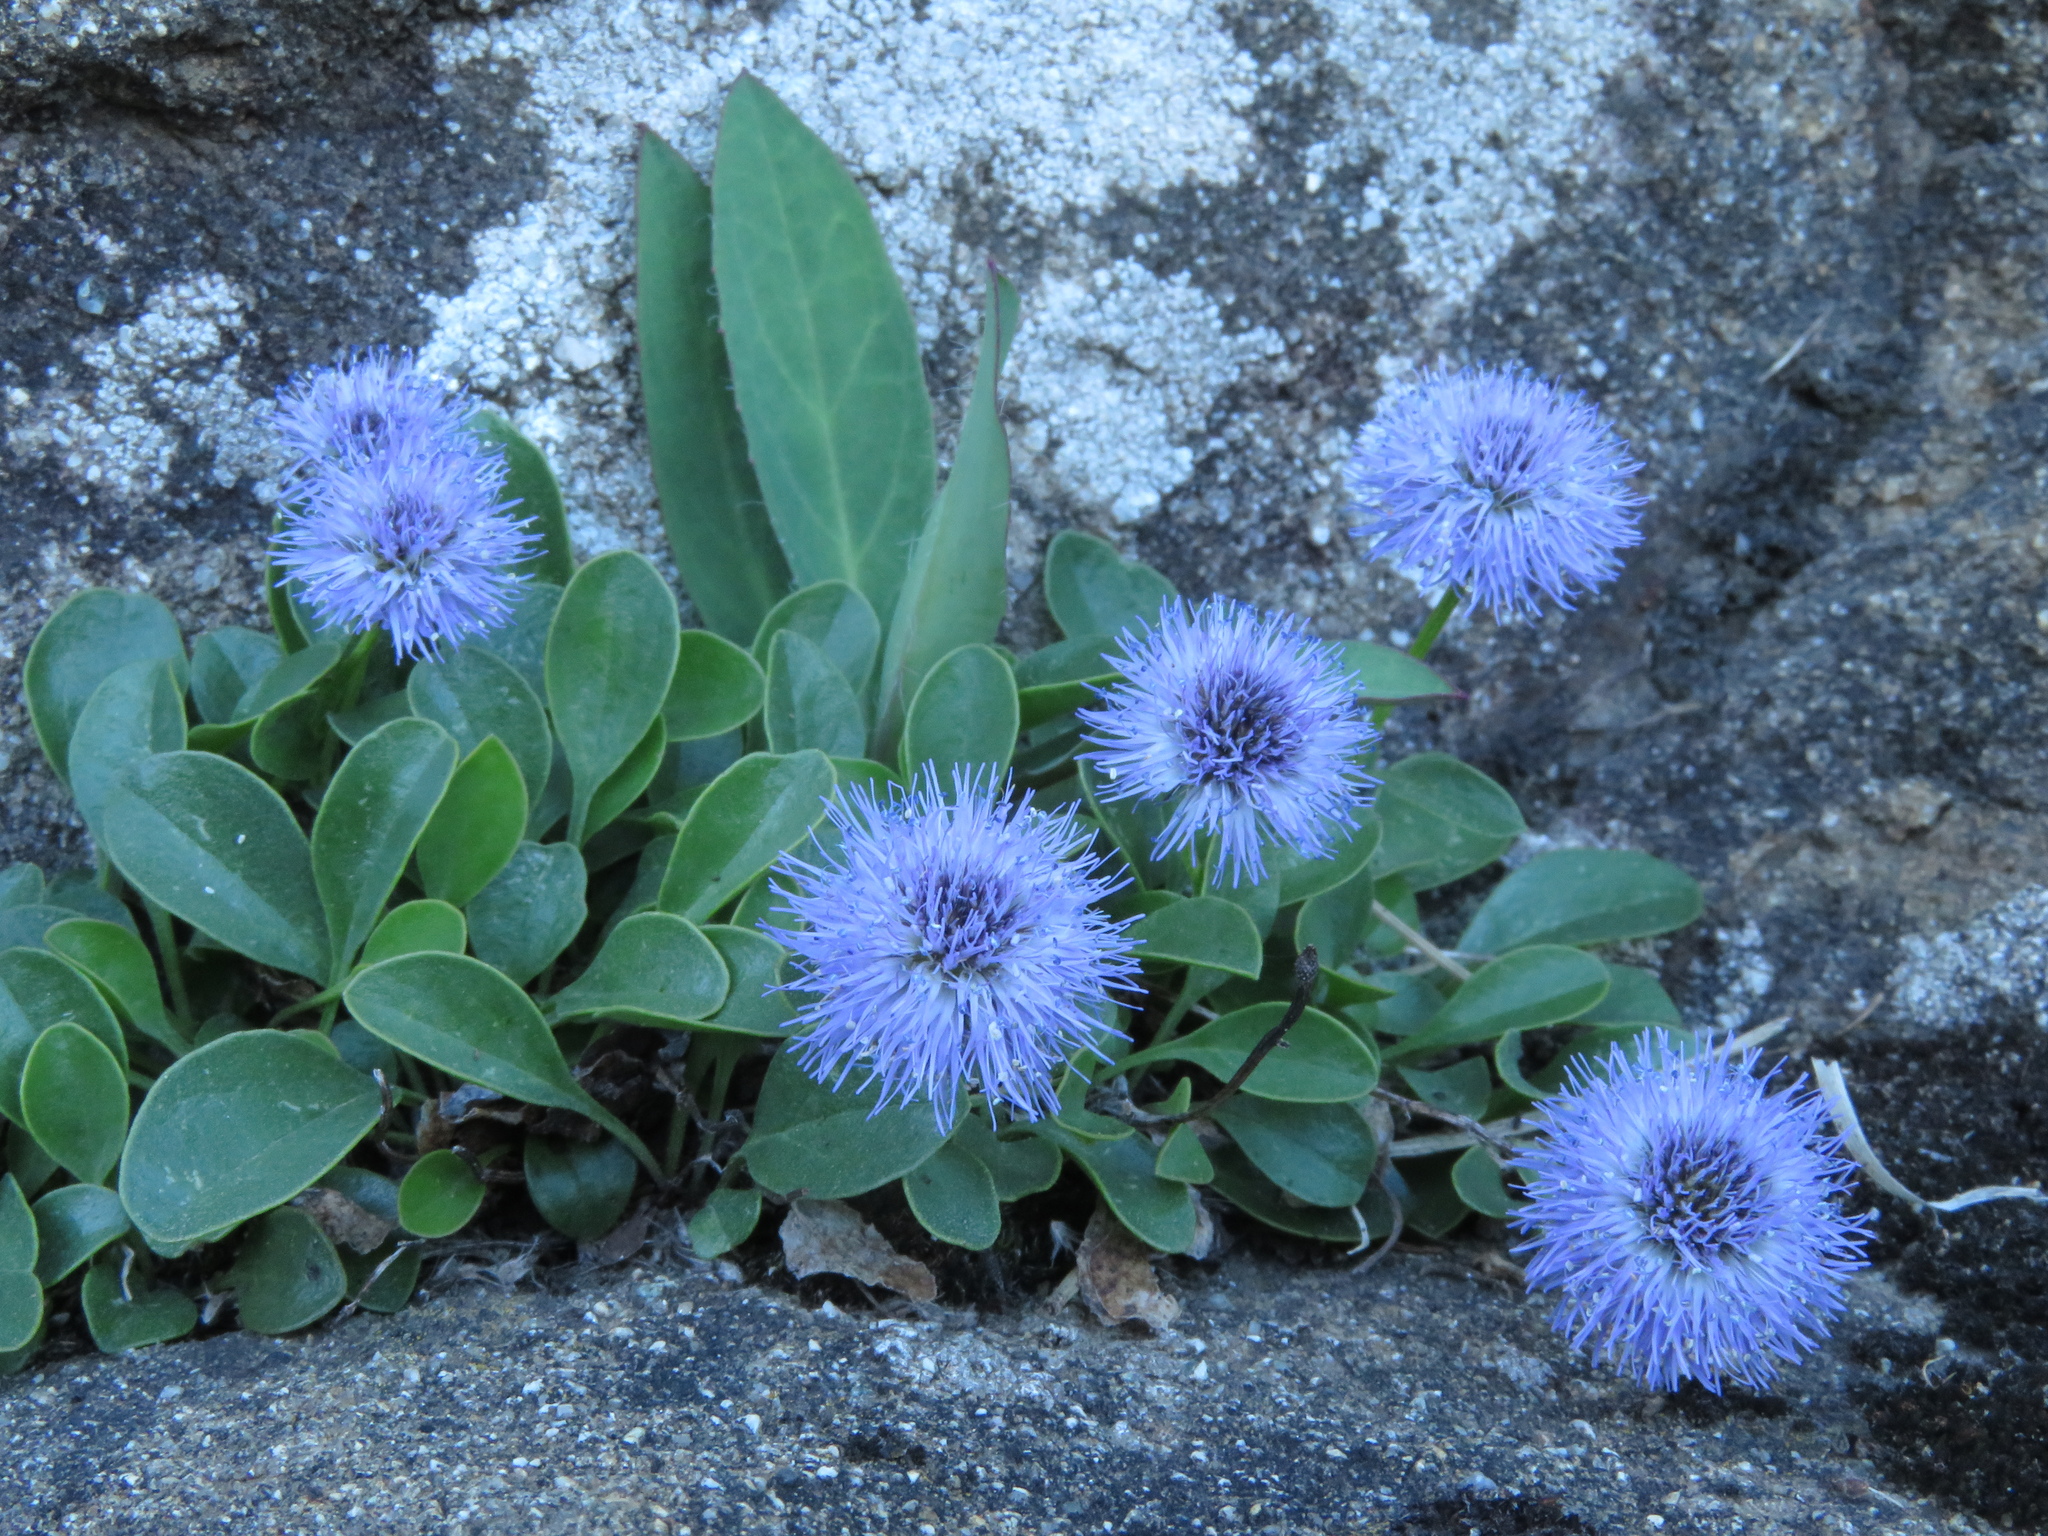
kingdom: Plantae
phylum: Tracheophyta
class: Magnoliopsida
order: Lamiales
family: Plantaginaceae
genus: Globularia
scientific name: Globularia incanescens
